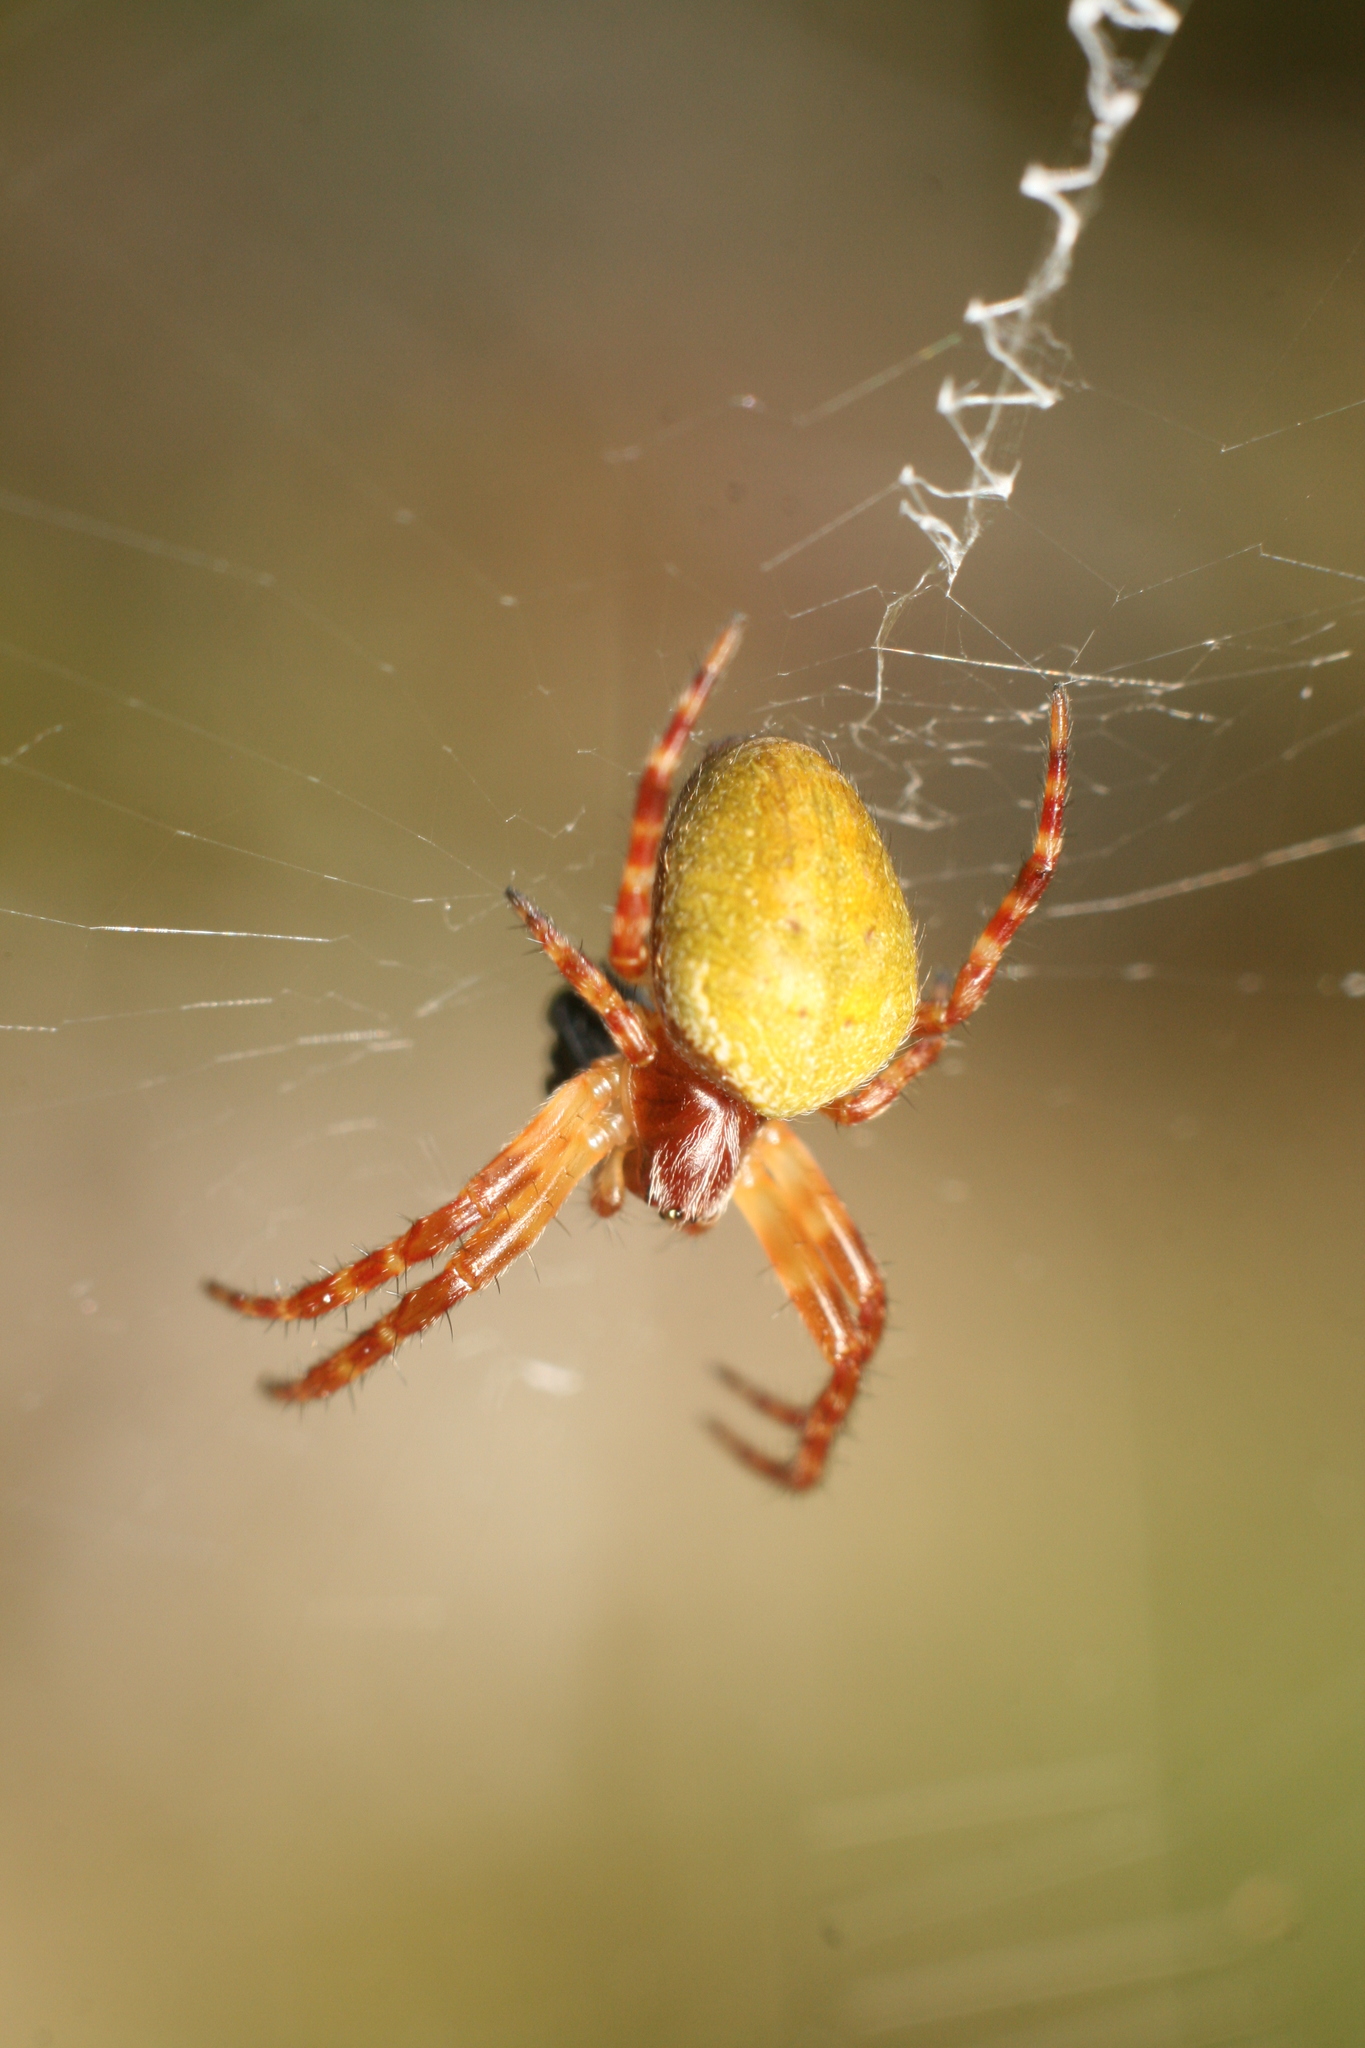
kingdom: Animalia
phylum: Arthropoda
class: Arachnida
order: Araneae
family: Araneidae
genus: Colaranea
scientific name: Colaranea viriditas
